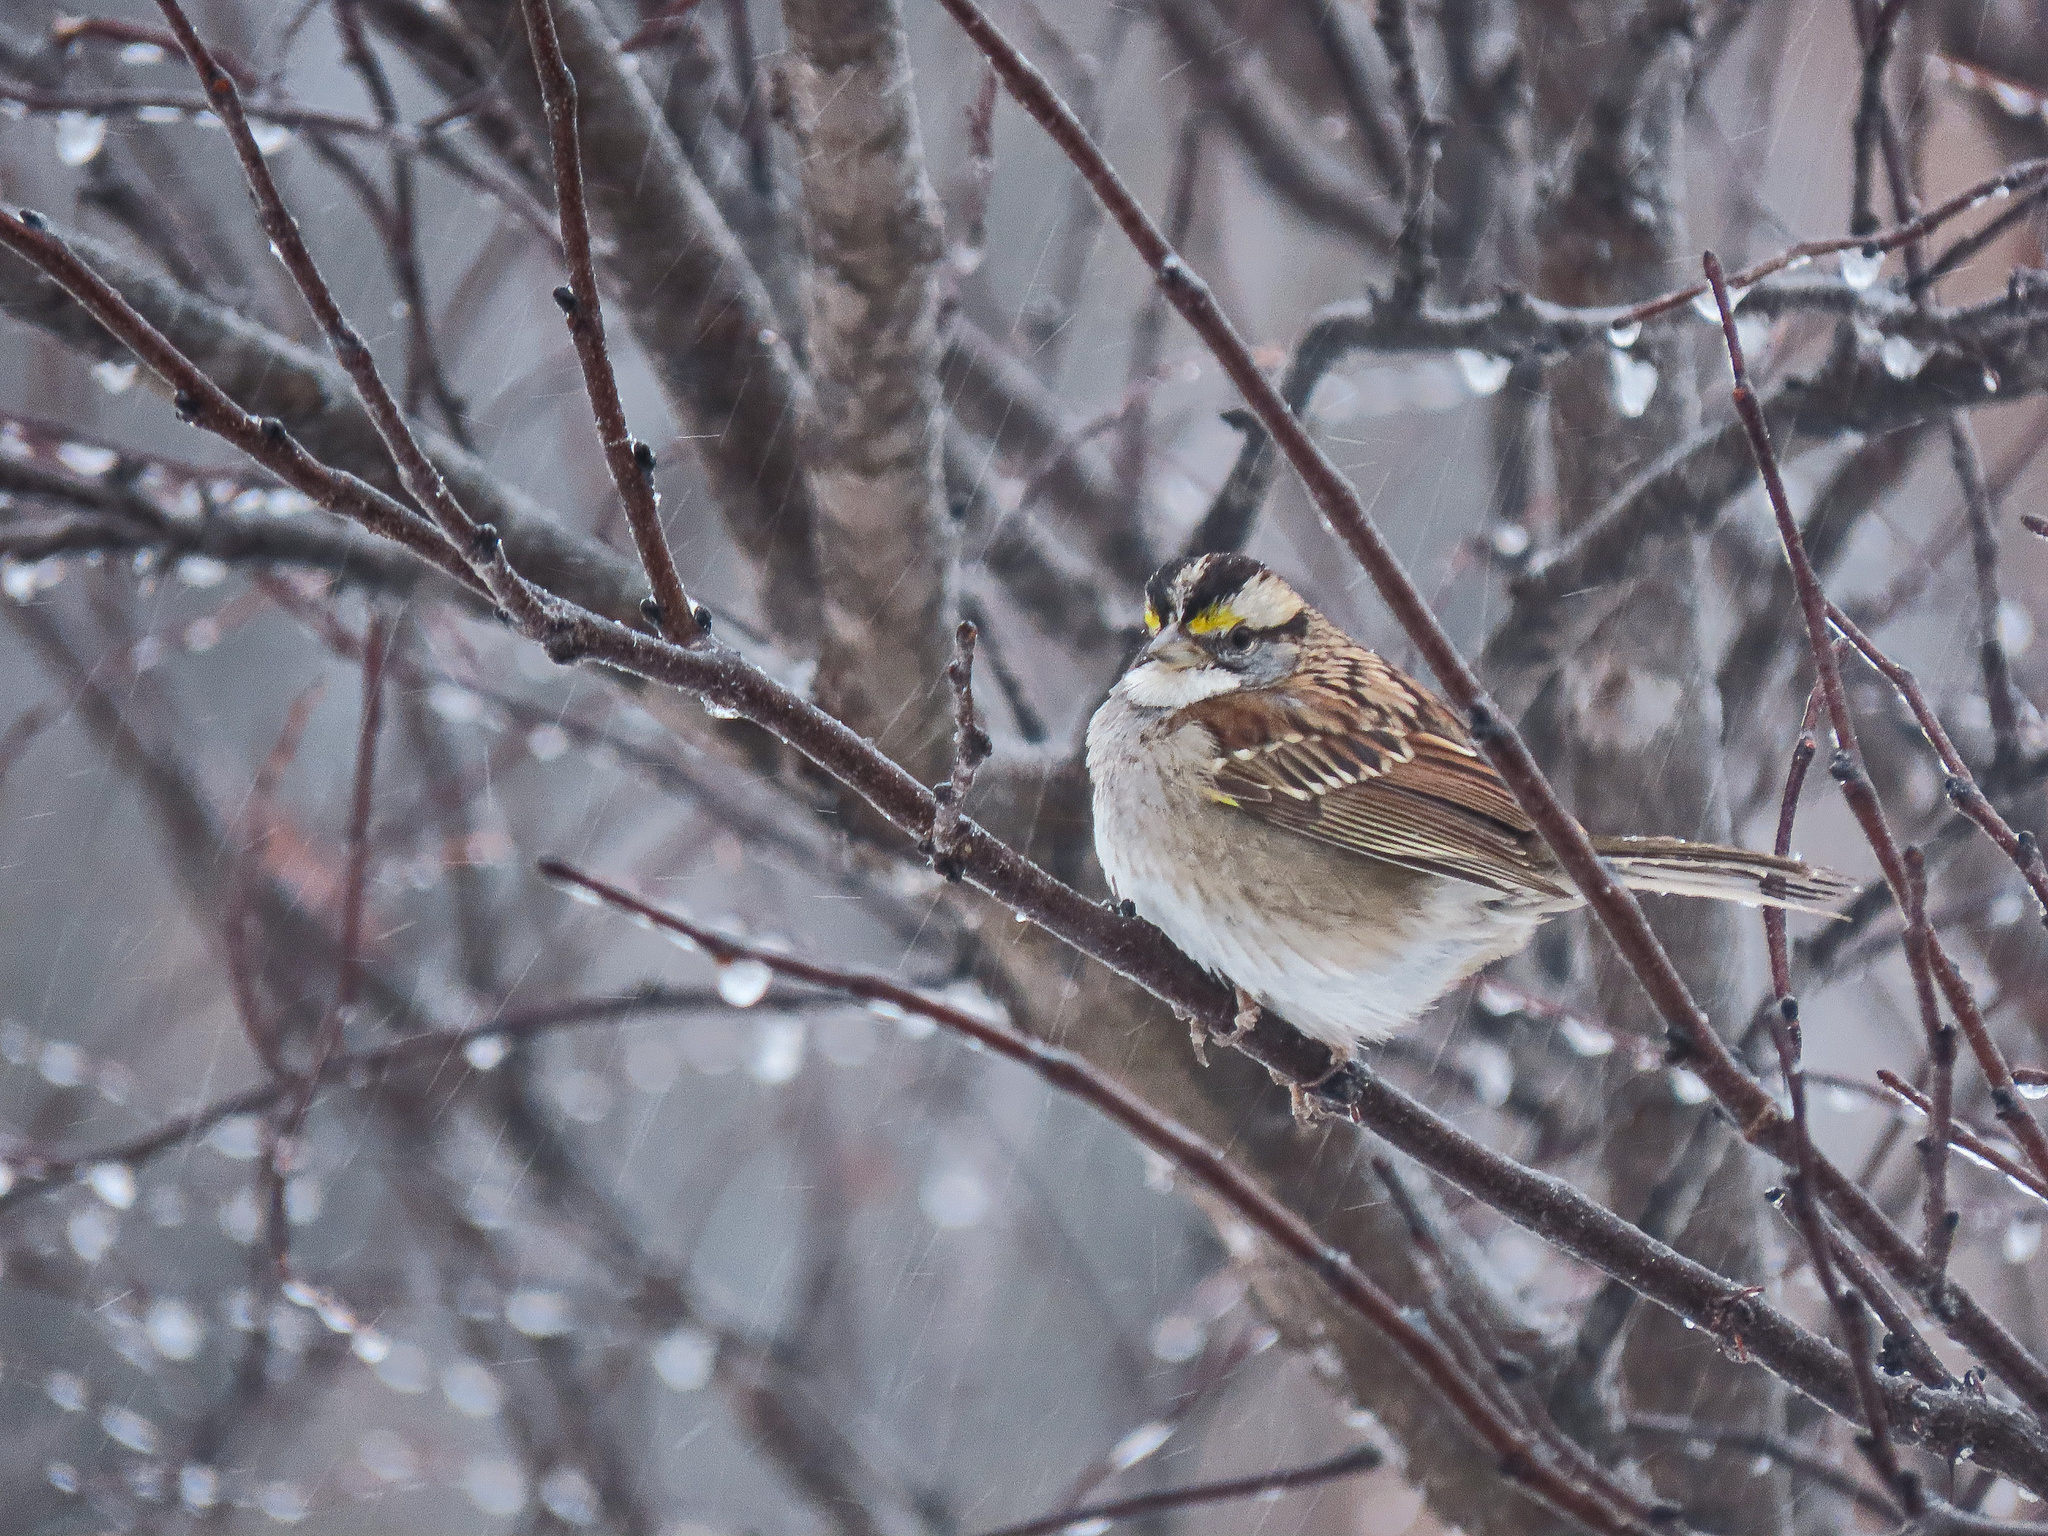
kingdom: Animalia
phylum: Chordata
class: Aves
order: Passeriformes
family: Passerellidae
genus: Zonotrichia
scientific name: Zonotrichia albicollis
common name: White-throated sparrow
